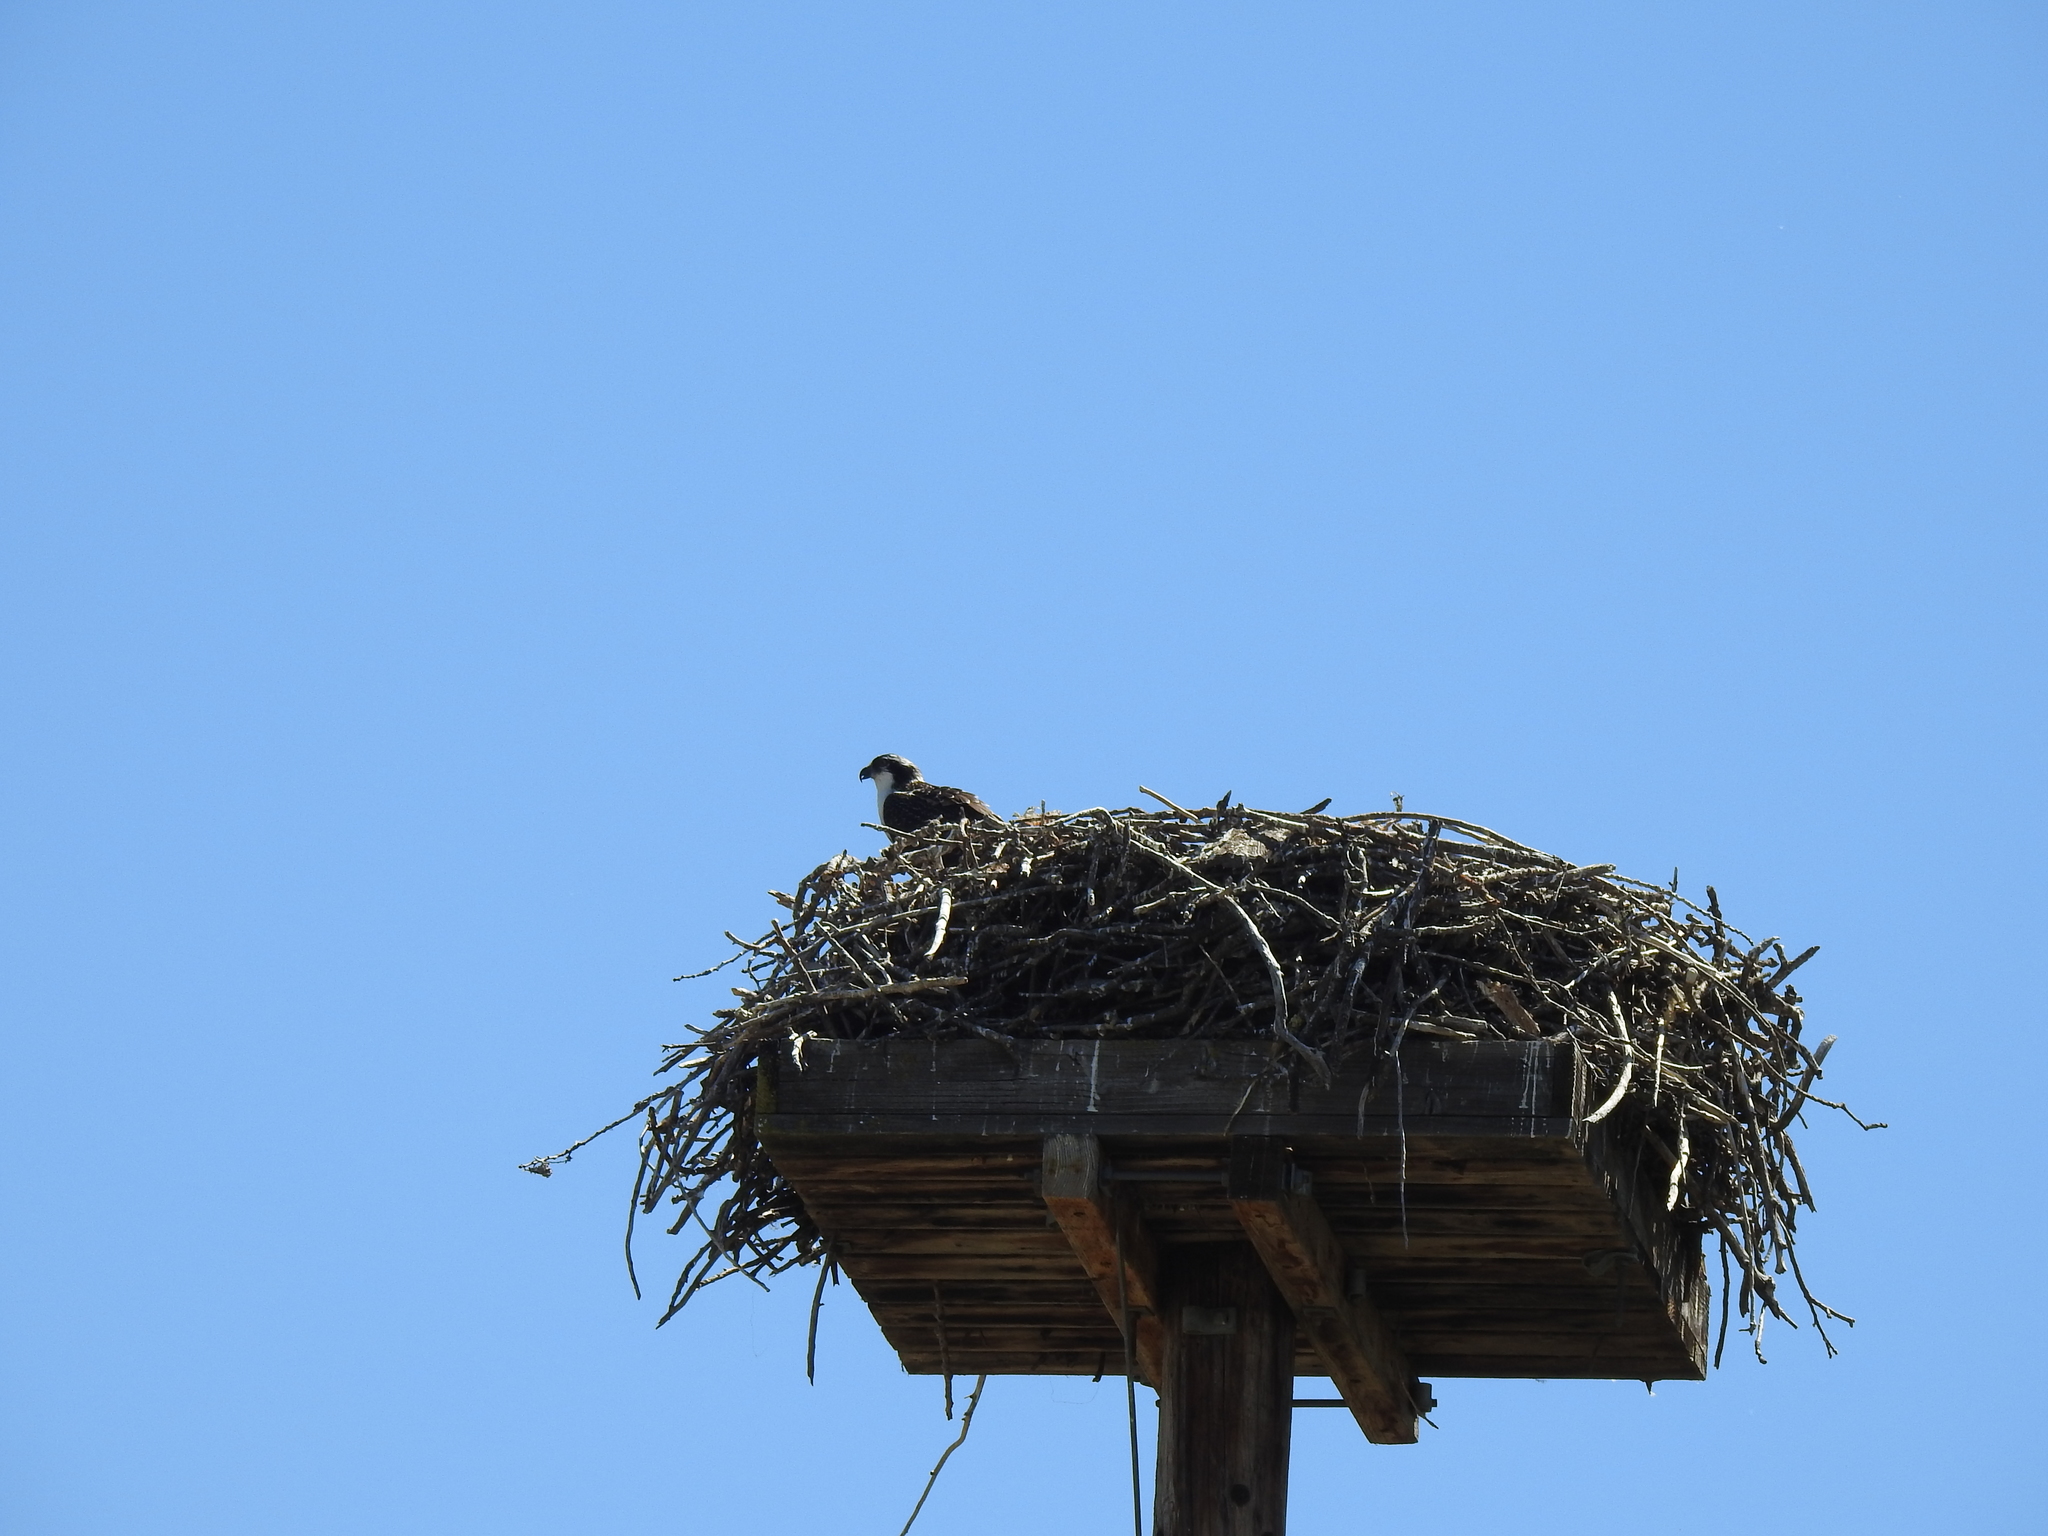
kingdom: Animalia
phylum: Chordata
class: Aves
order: Accipitriformes
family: Pandionidae
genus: Pandion
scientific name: Pandion haliaetus
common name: Osprey
